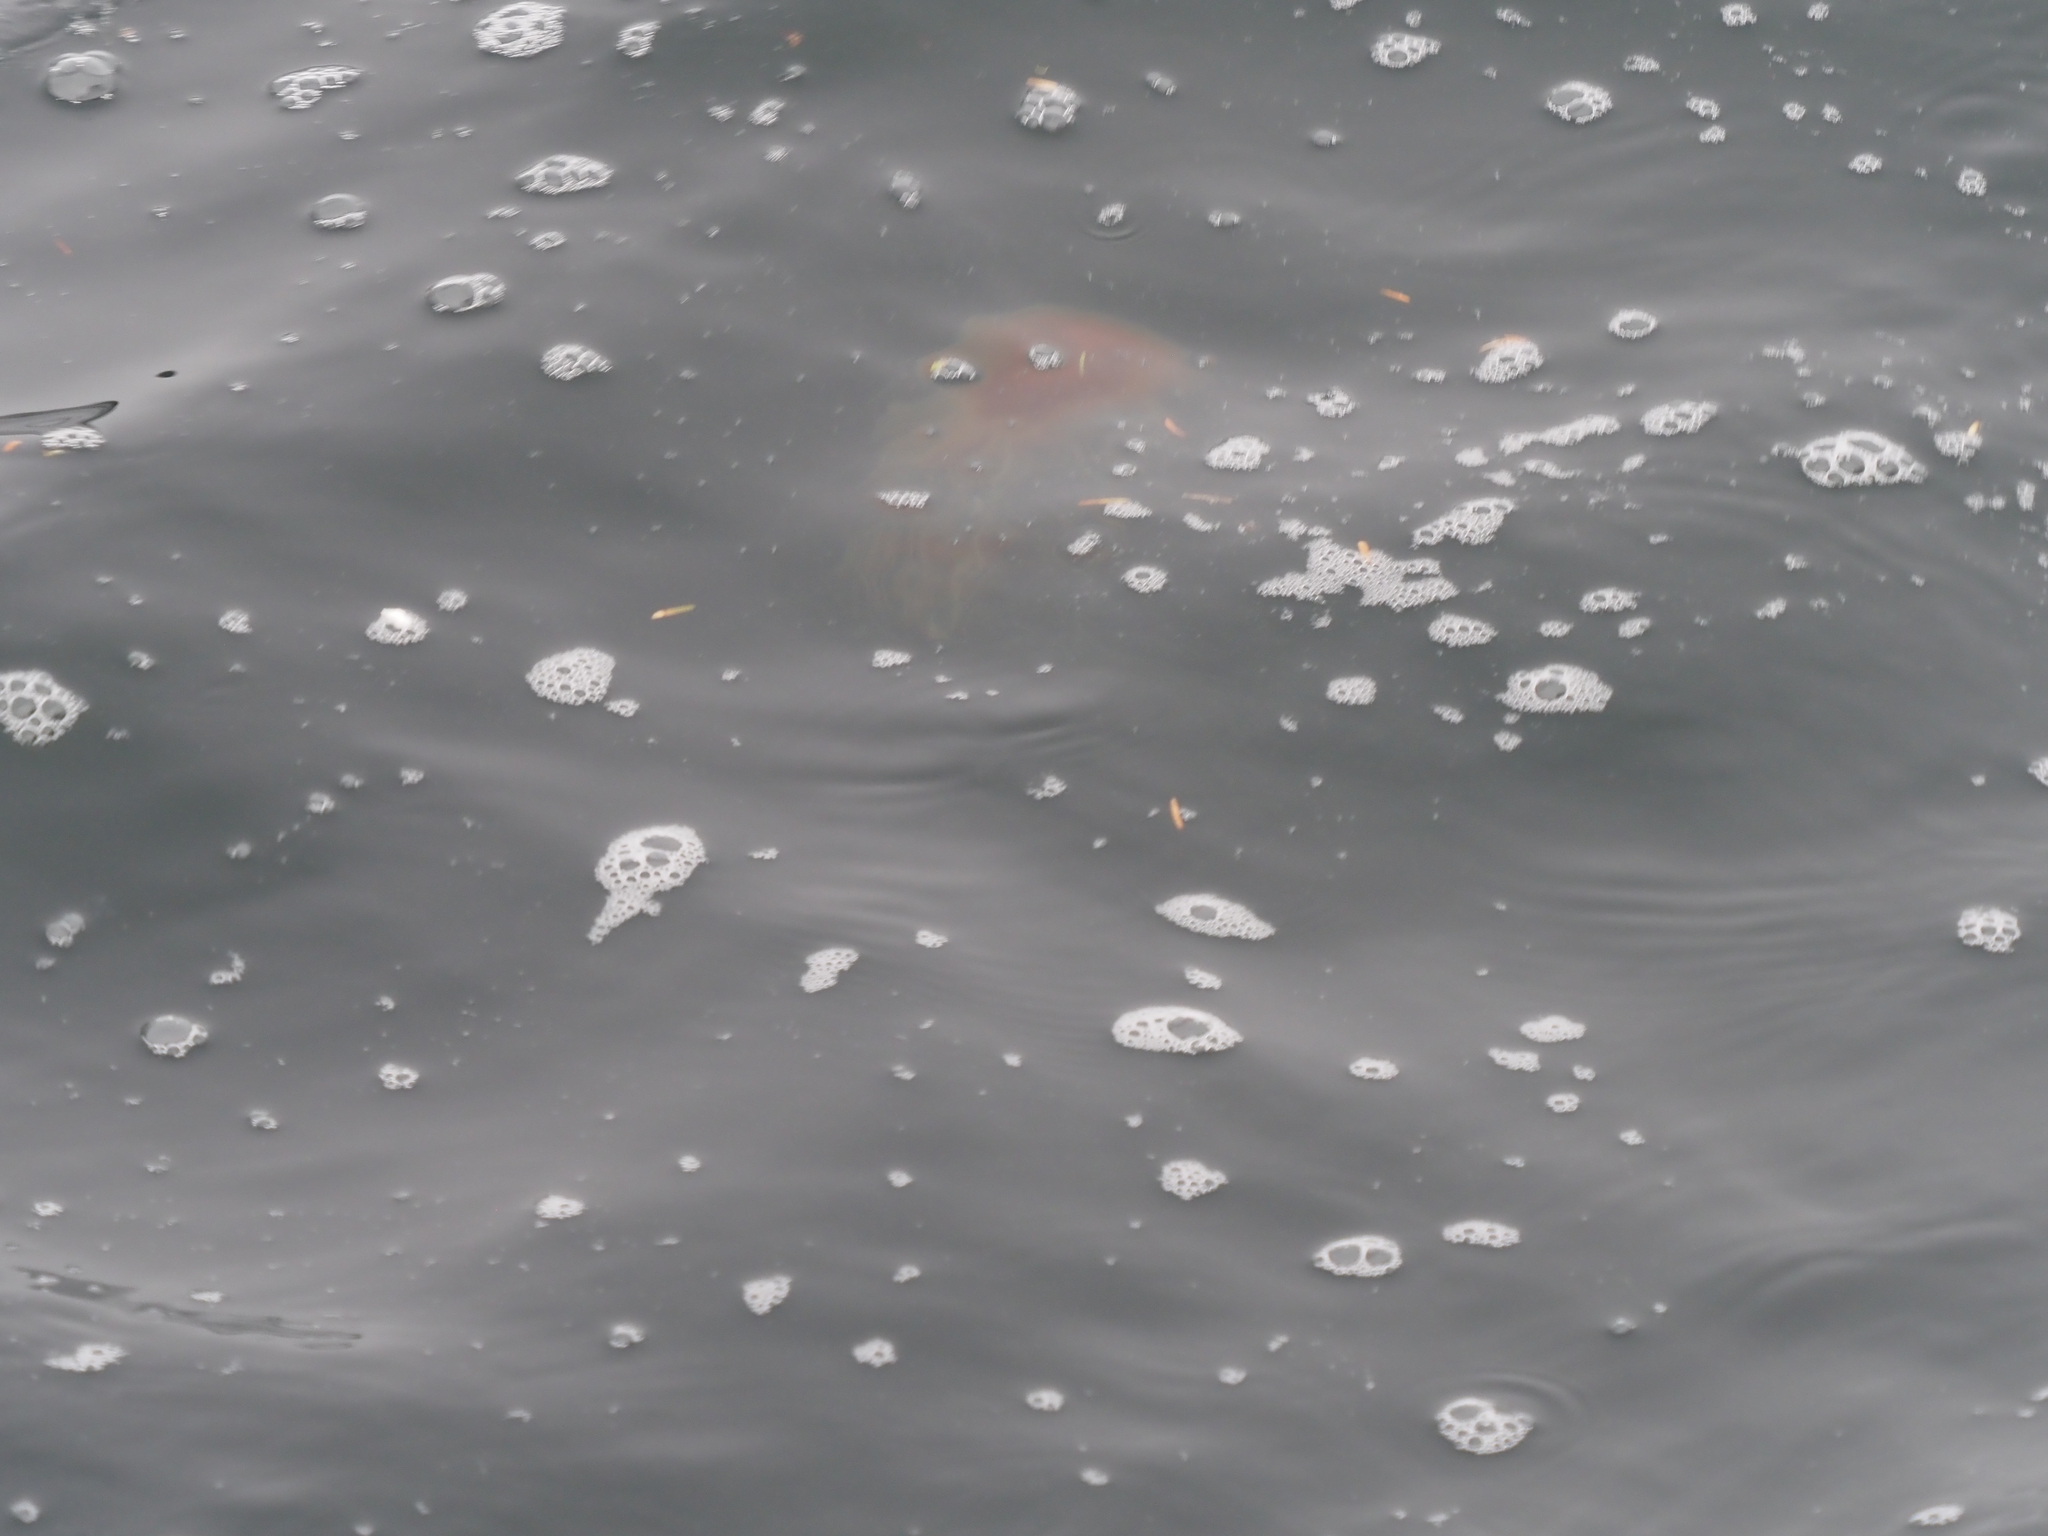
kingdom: Animalia
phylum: Cnidaria
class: Scyphozoa
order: Semaeostomeae
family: Cyaneidae
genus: Cyanea
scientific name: Cyanea ferruginea
